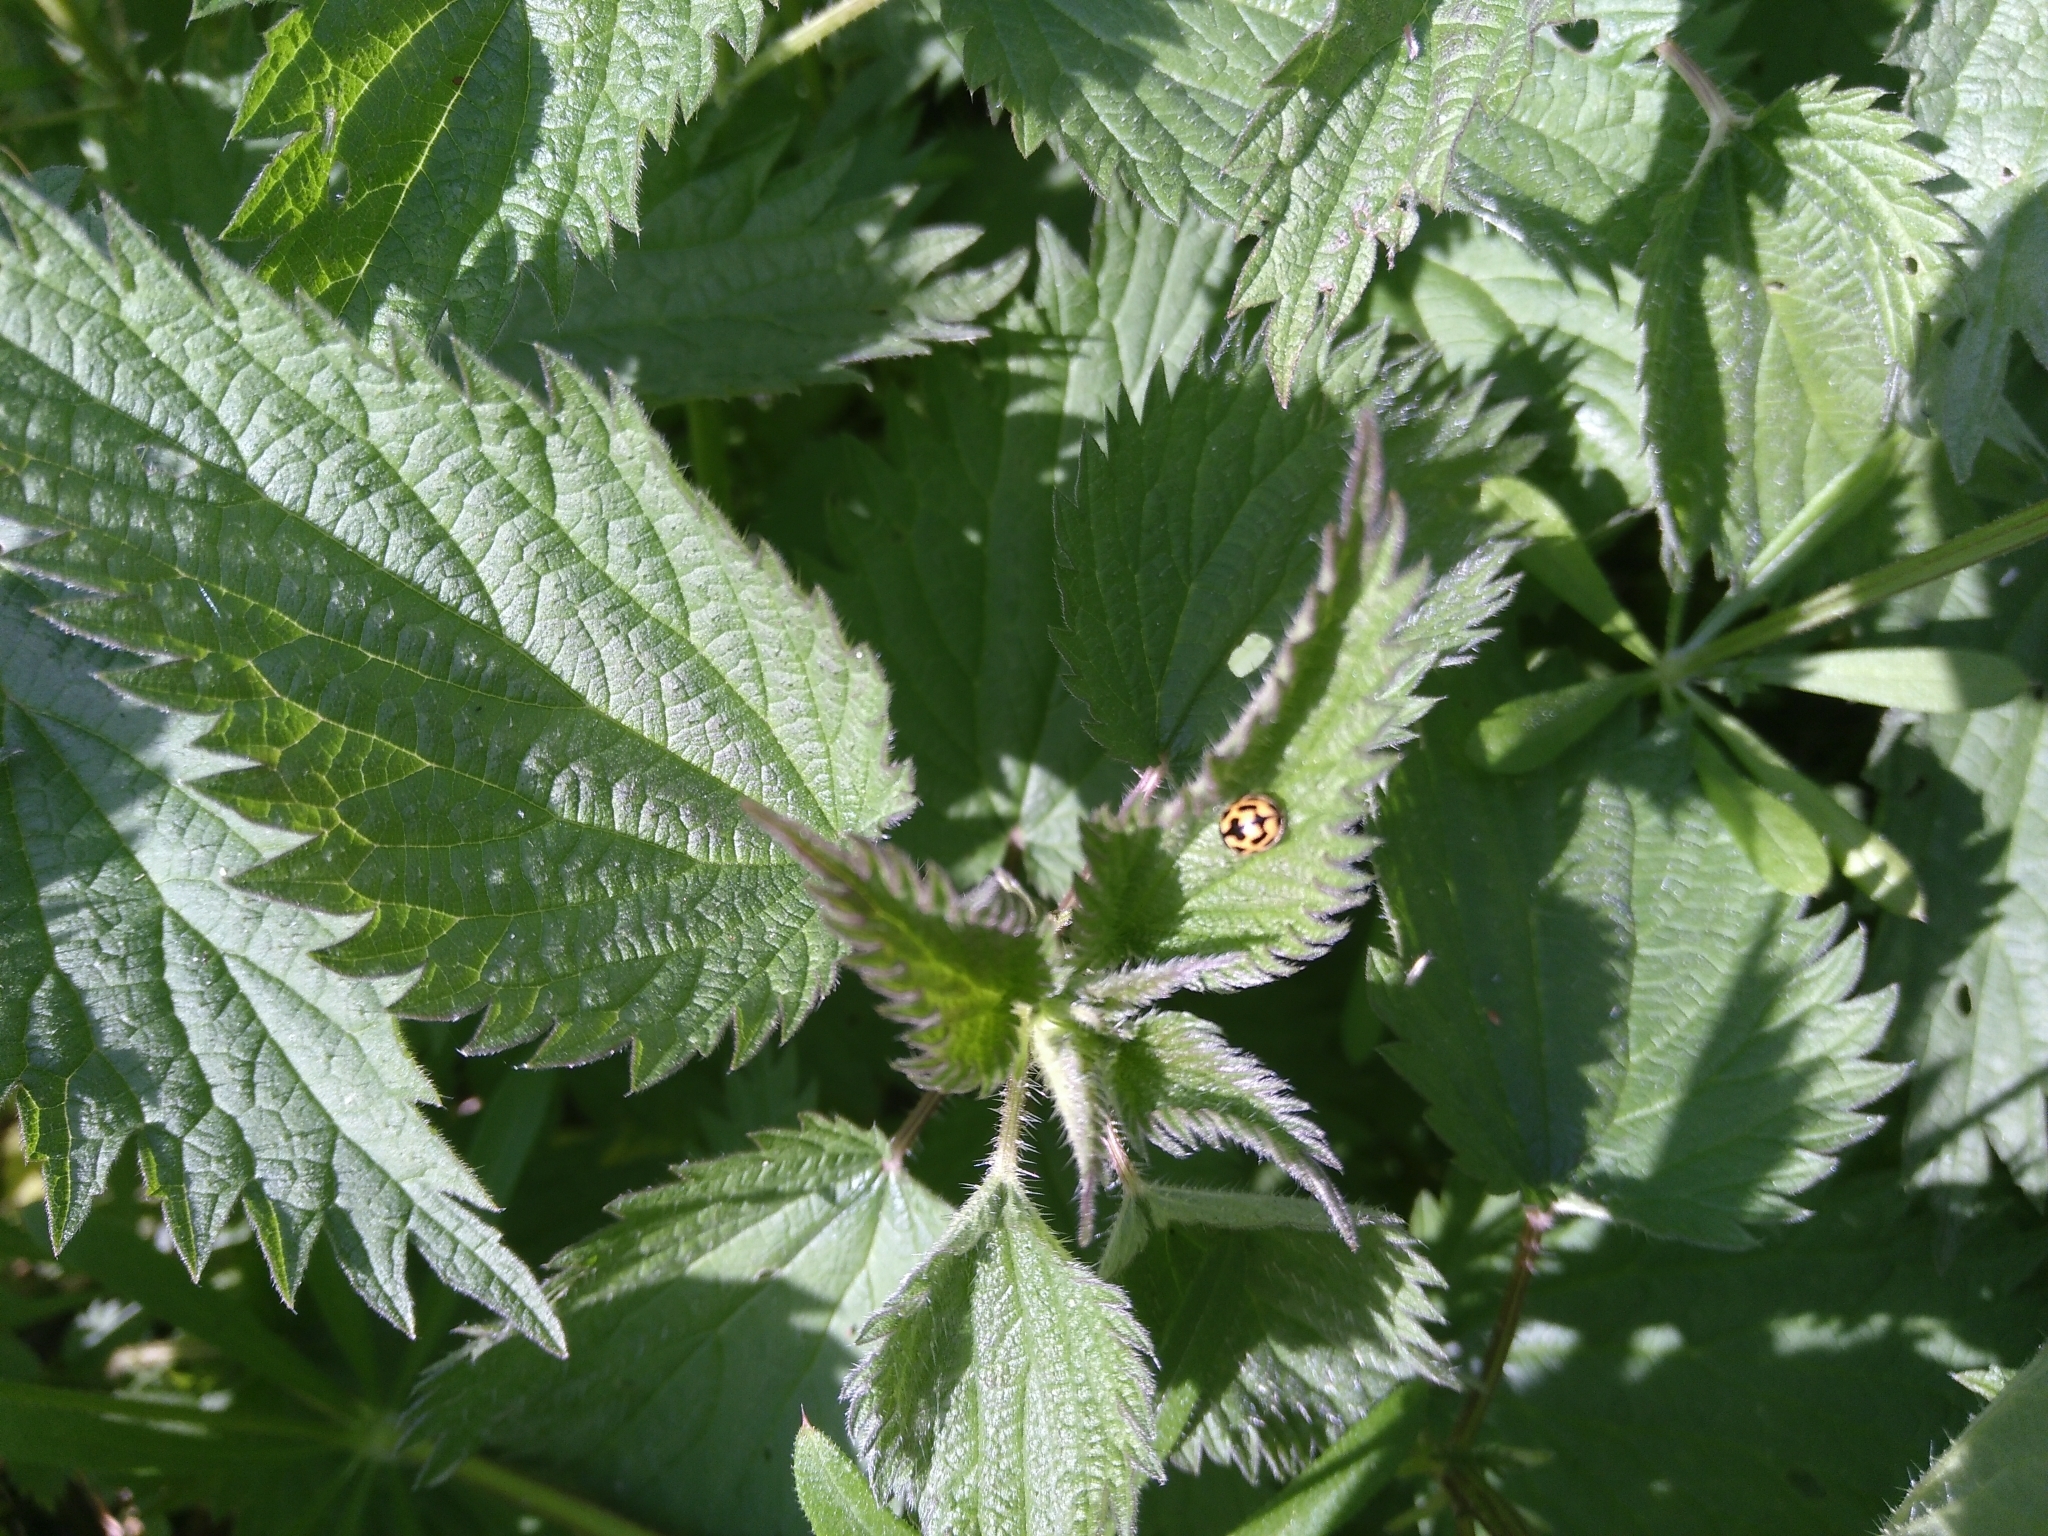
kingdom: Animalia
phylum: Arthropoda
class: Insecta
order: Coleoptera
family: Coccinellidae
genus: Propylaea
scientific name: Propylaea quatuordecimpunctata
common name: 14-spotted ladybird beetle
